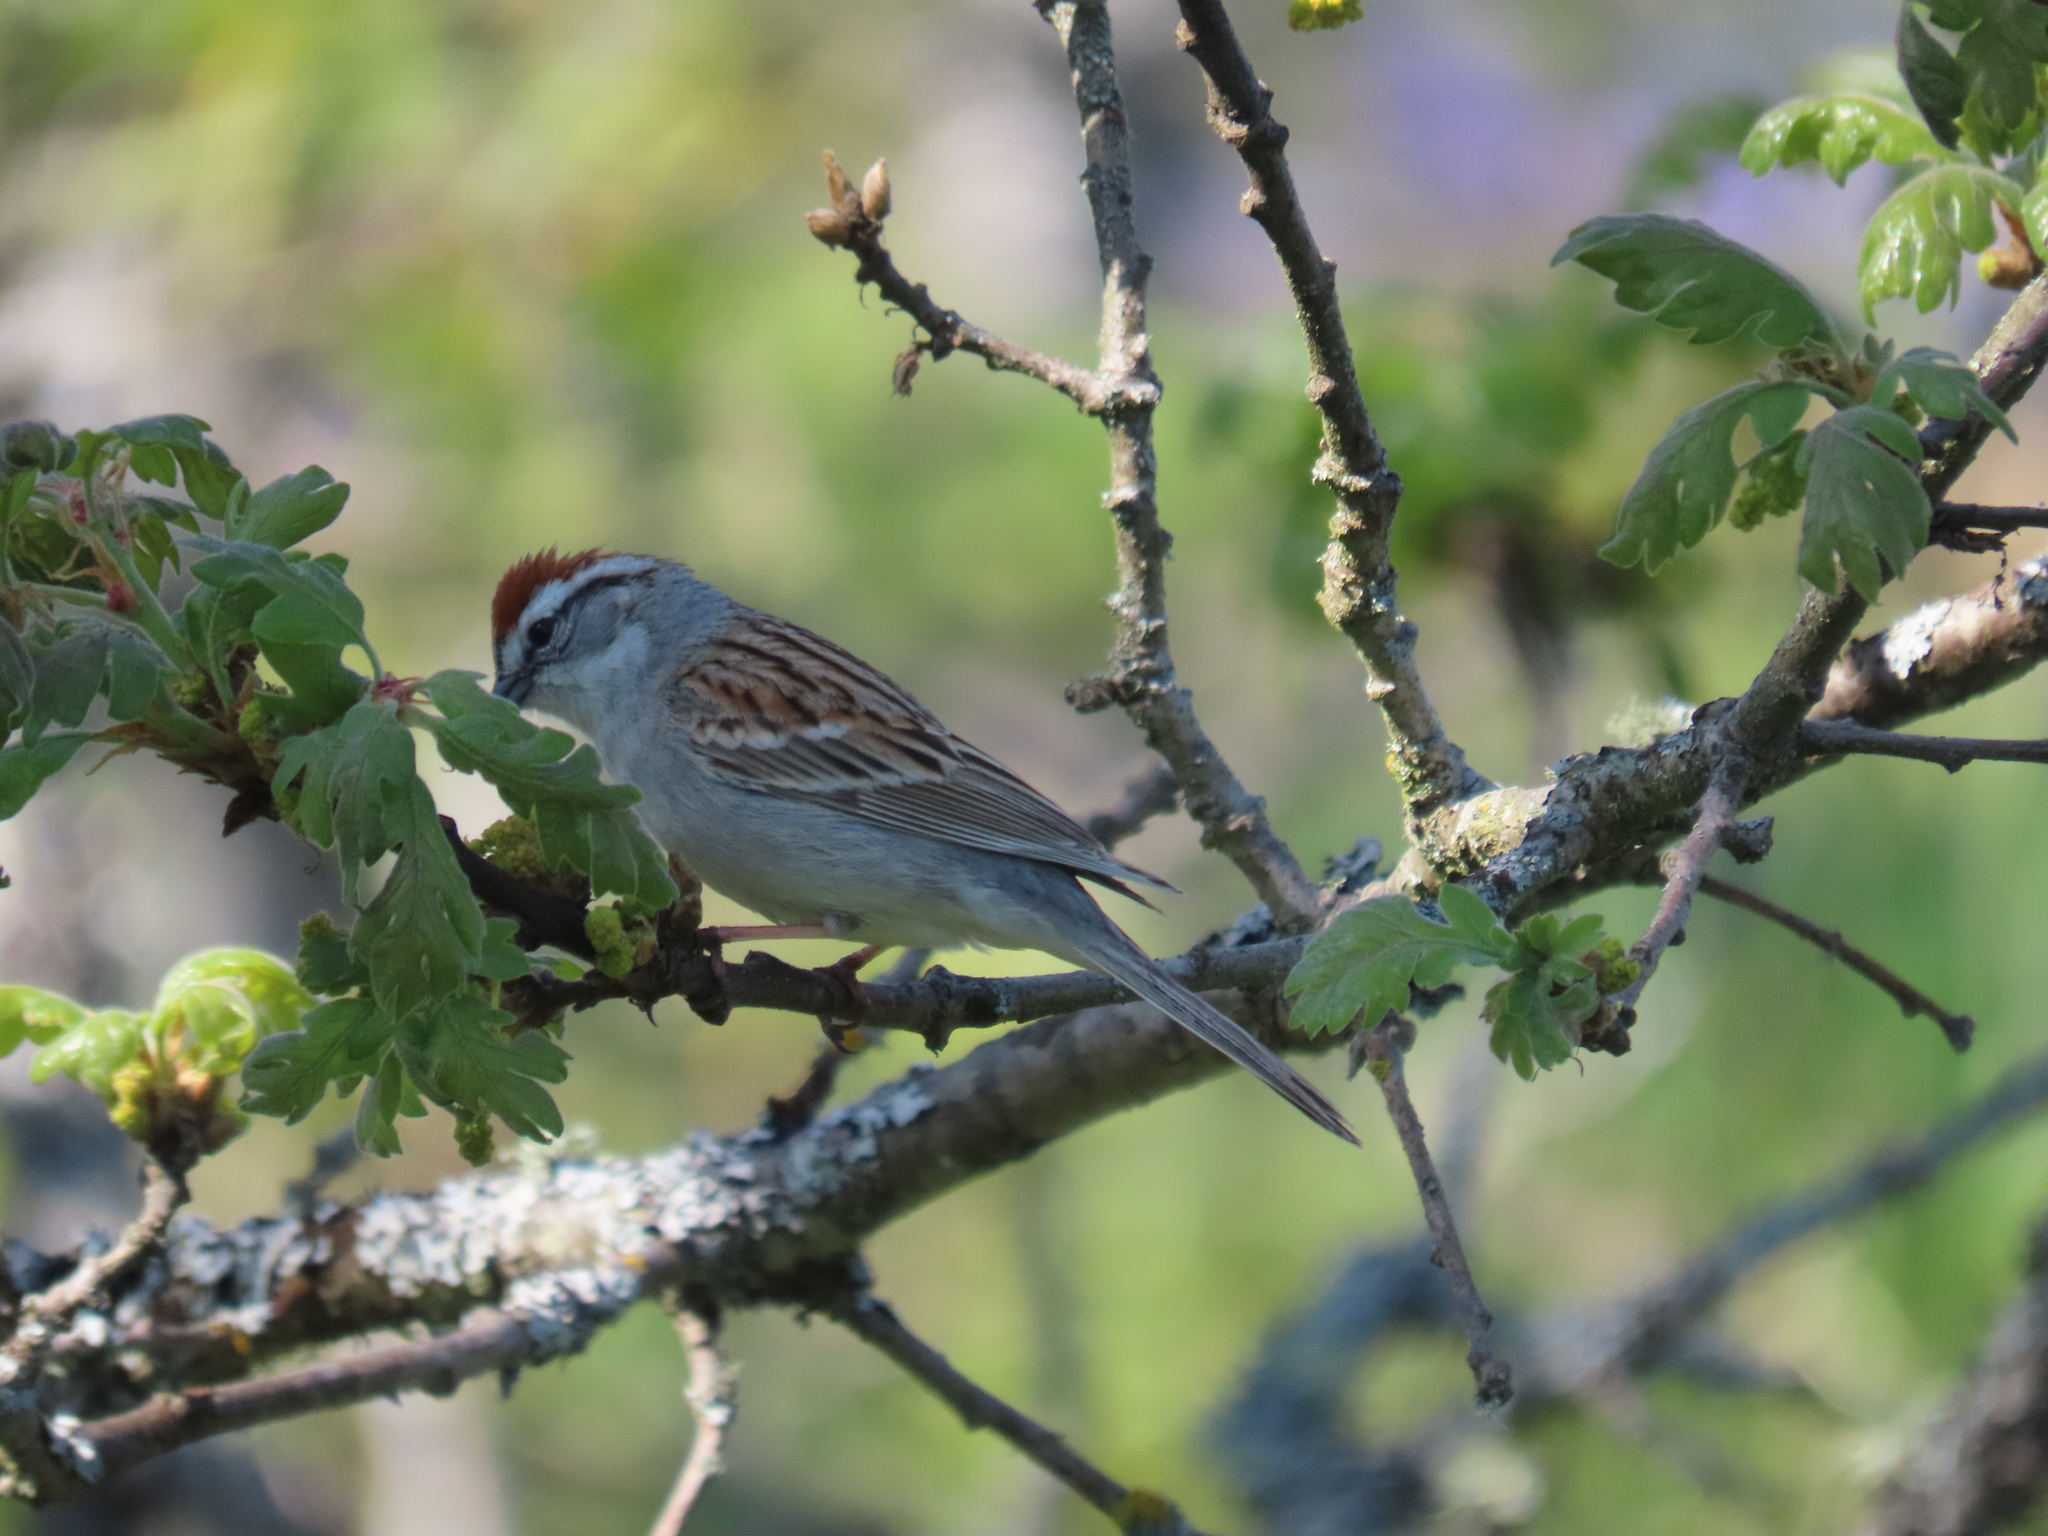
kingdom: Animalia
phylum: Chordata
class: Aves
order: Passeriformes
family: Passerellidae
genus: Spizella
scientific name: Spizella passerina
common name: Chipping sparrow
